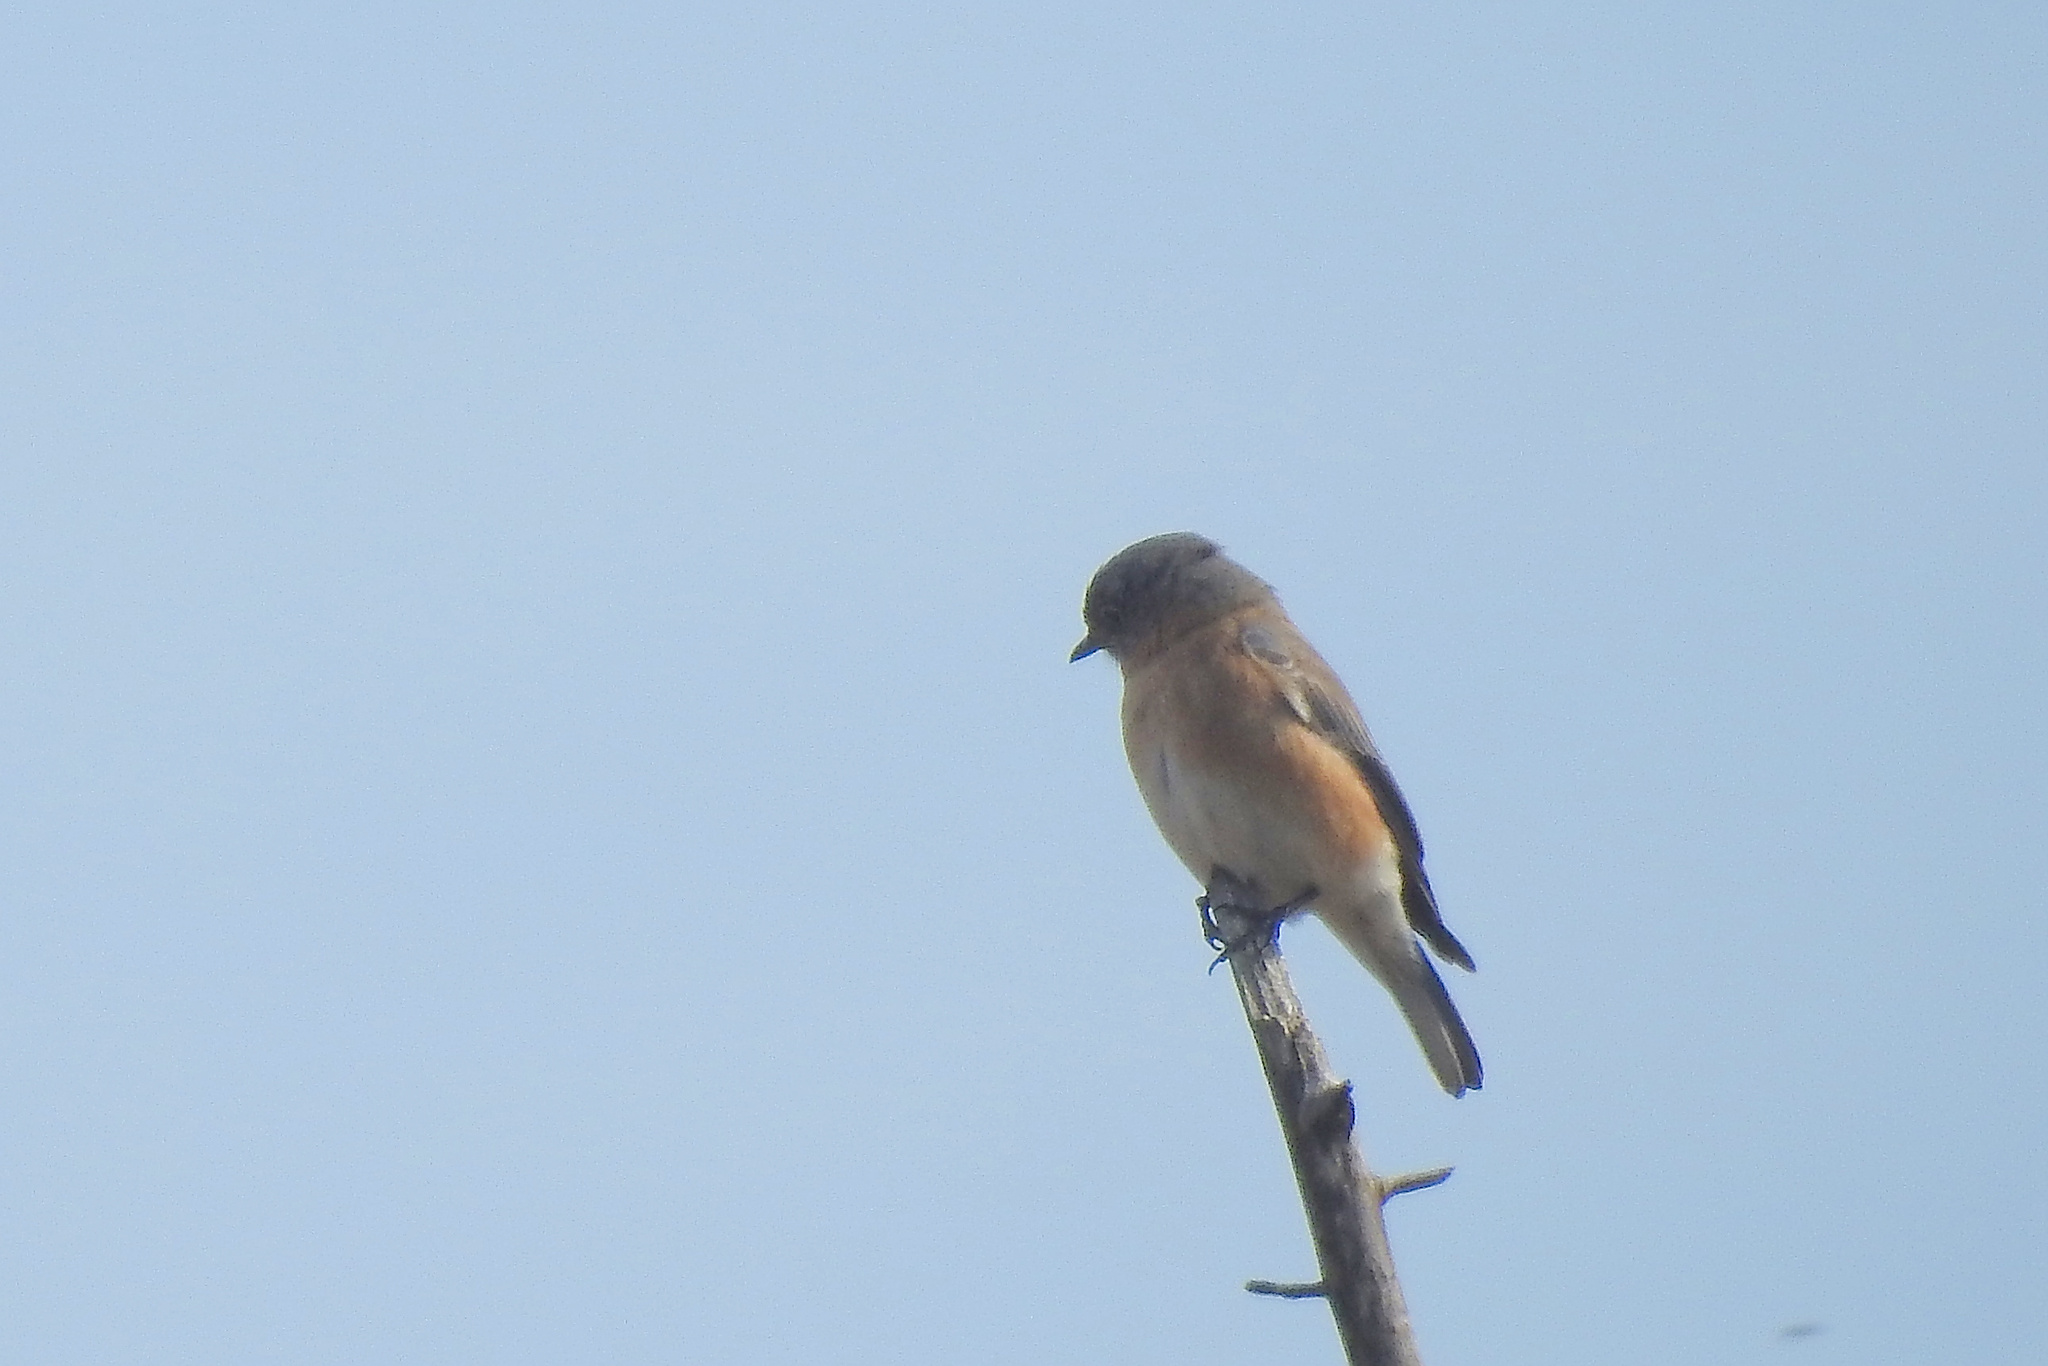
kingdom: Animalia
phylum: Chordata
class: Aves
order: Passeriformes
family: Turdidae
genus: Sialia
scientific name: Sialia sialis
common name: Eastern bluebird
